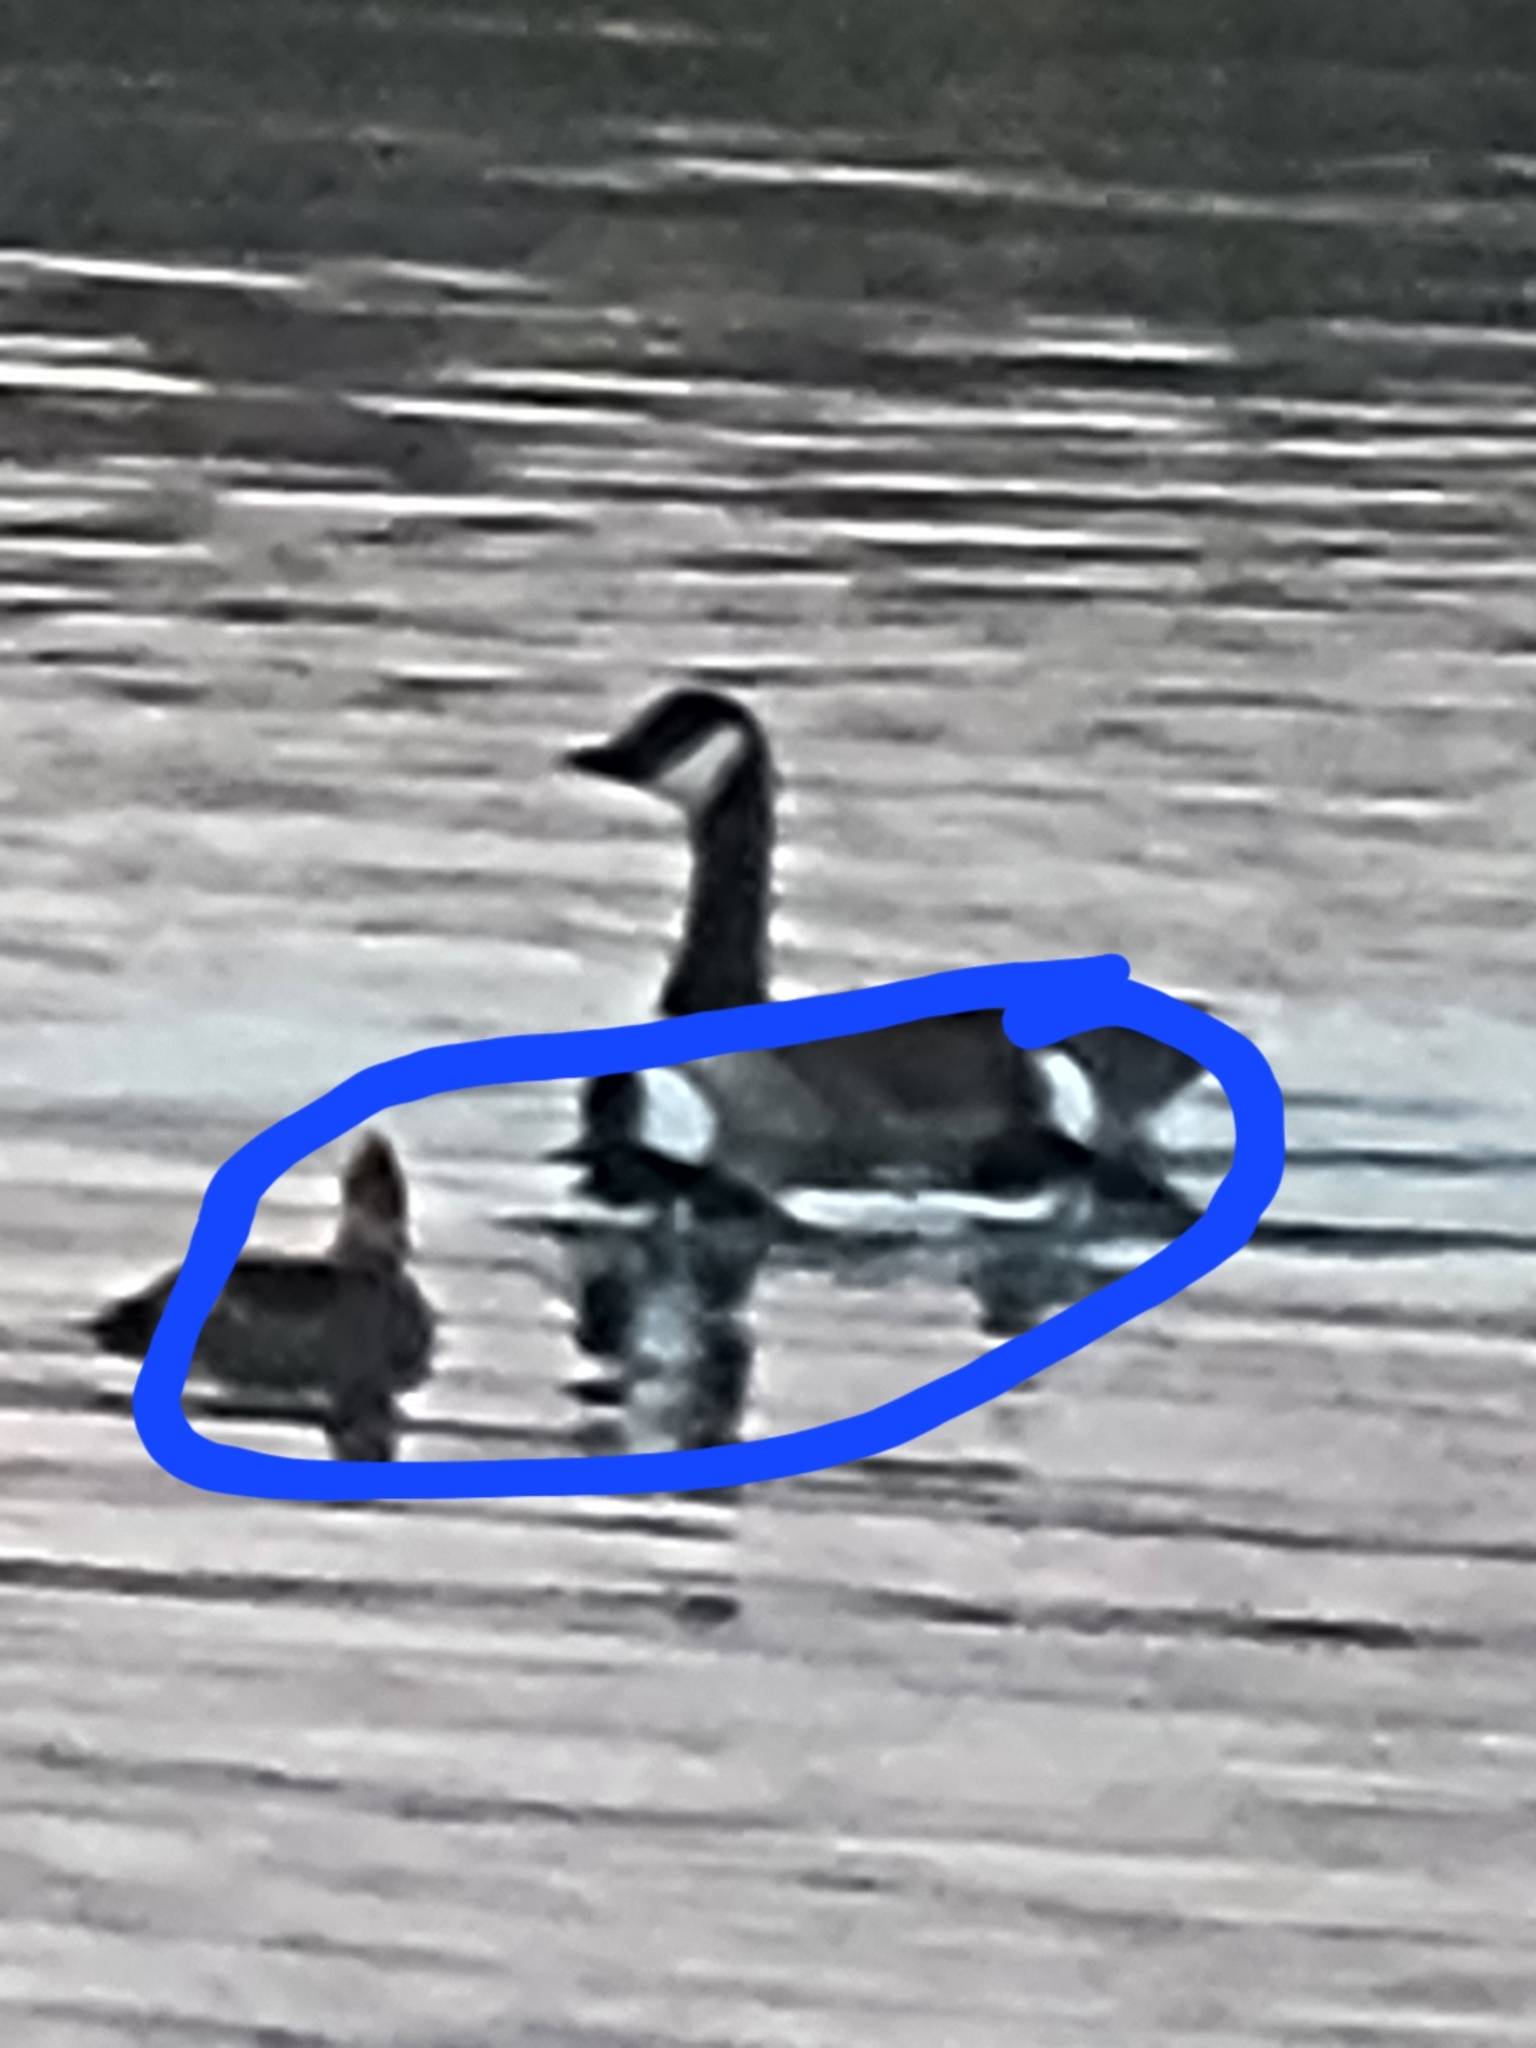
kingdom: Animalia
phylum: Chordata
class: Aves
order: Anseriformes
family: Anatidae
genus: Lophodytes
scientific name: Lophodytes cucullatus
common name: Hooded merganser
